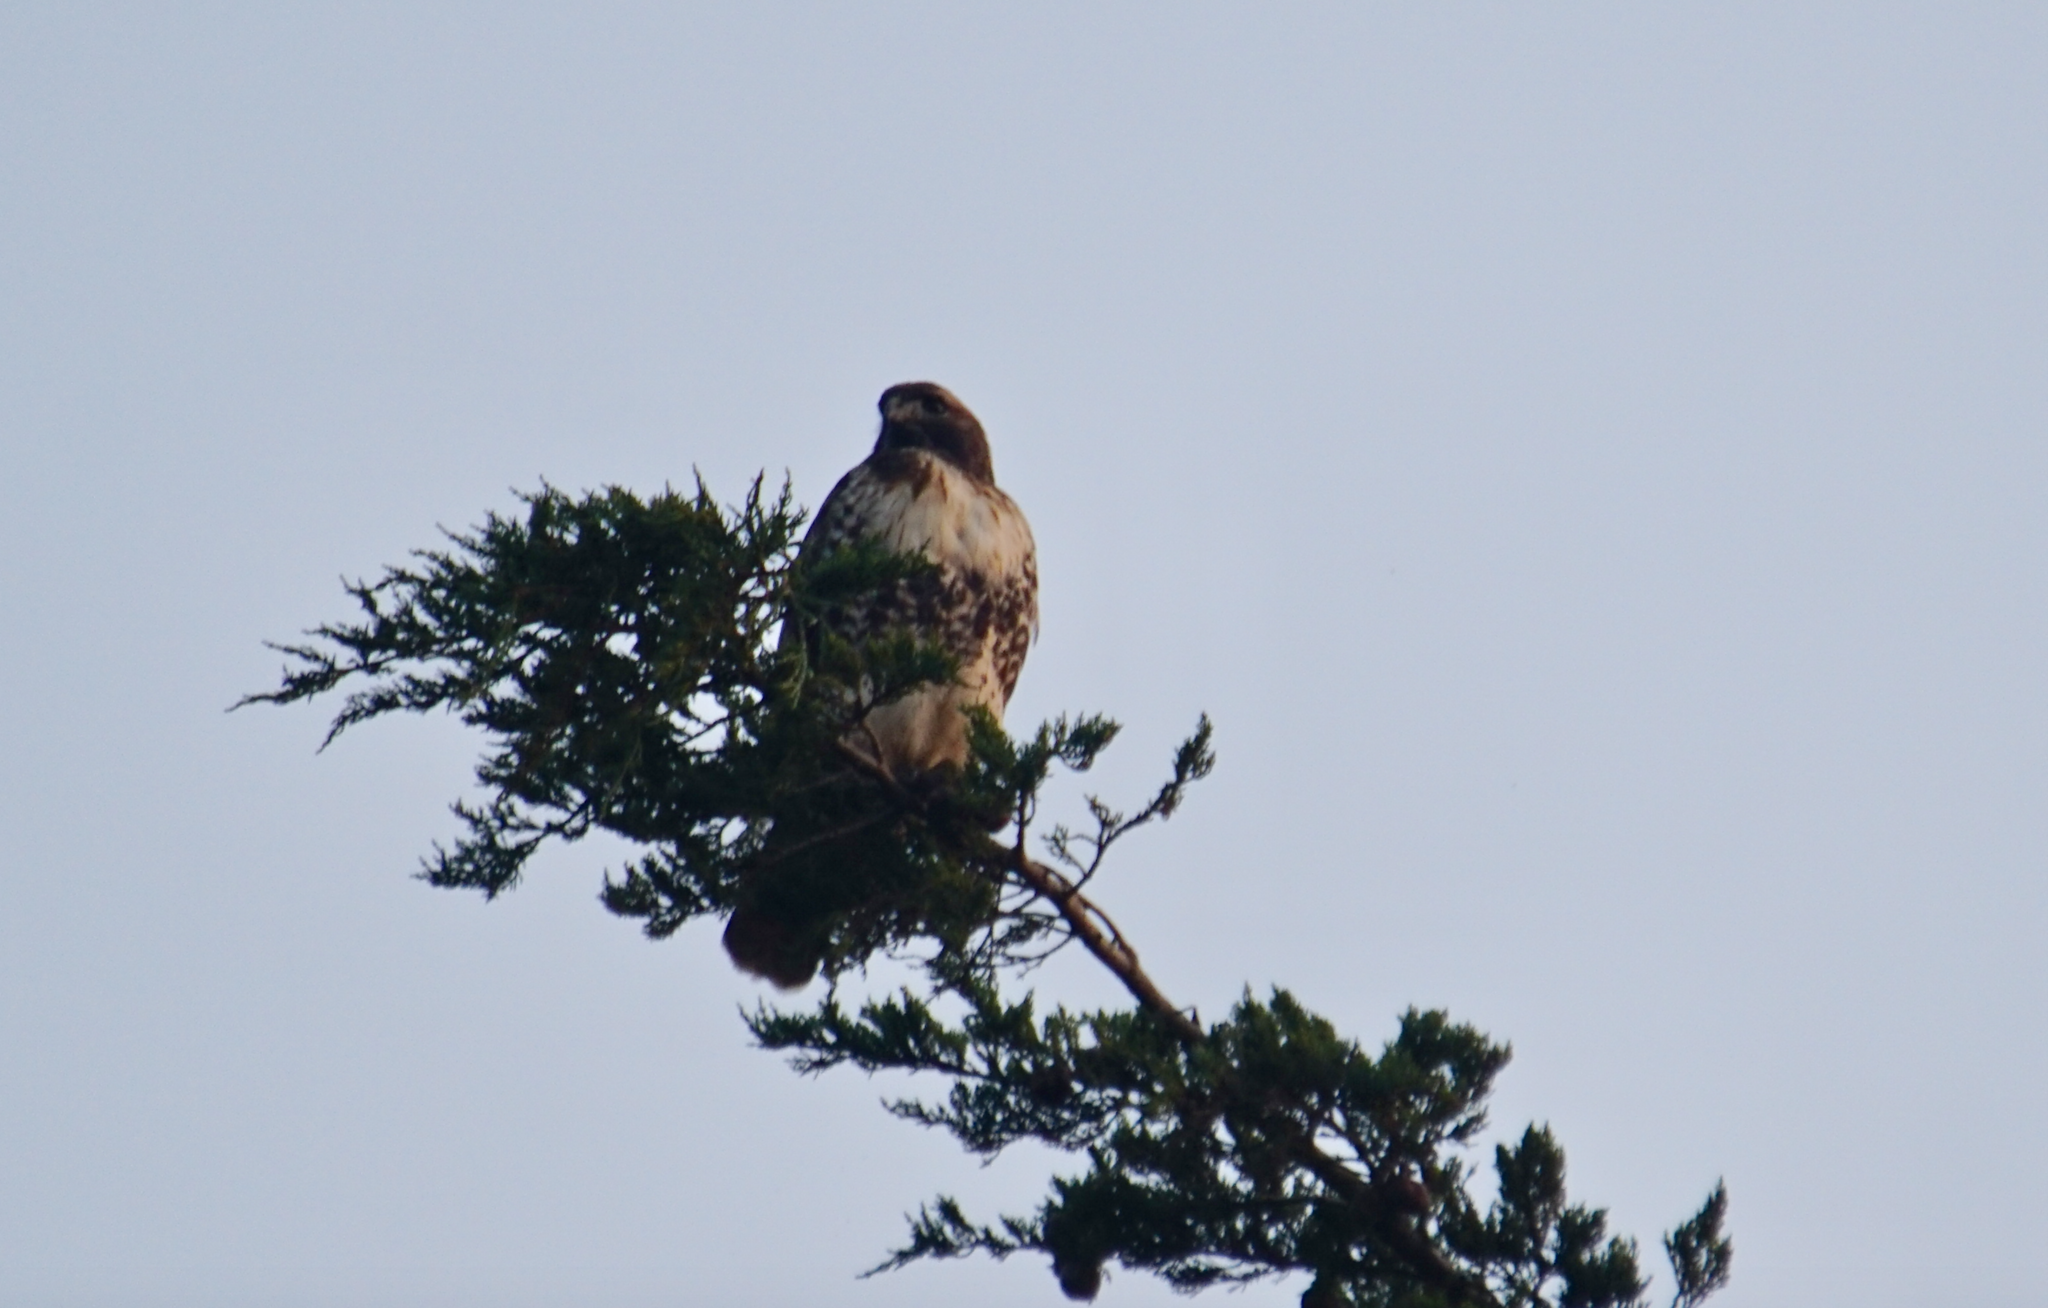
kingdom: Animalia
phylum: Chordata
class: Aves
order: Accipitriformes
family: Accipitridae
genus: Buteo
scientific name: Buteo jamaicensis
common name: Red-tailed hawk
